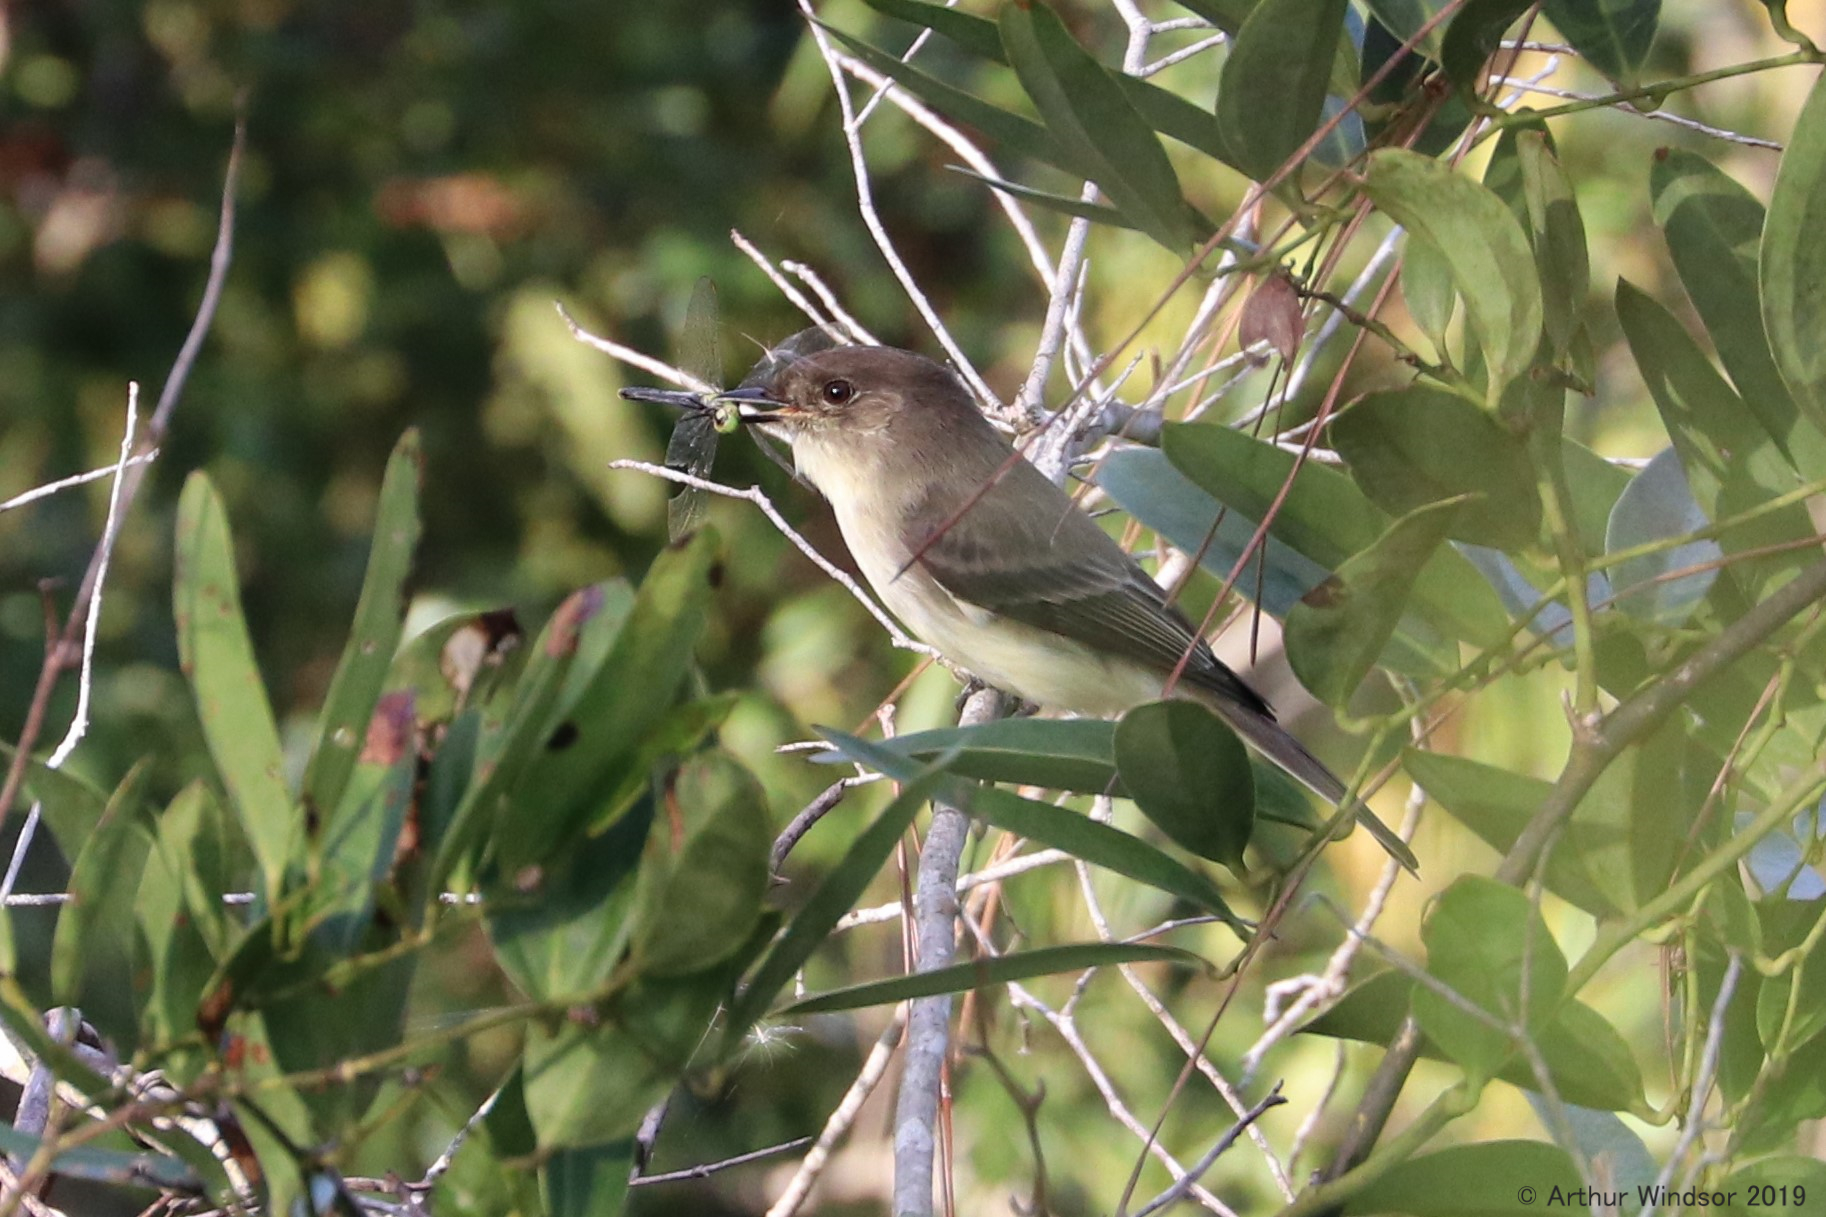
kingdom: Animalia
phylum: Chordata
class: Aves
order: Passeriformes
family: Tyrannidae
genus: Sayornis
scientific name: Sayornis phoebe
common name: Eastern phoebe
